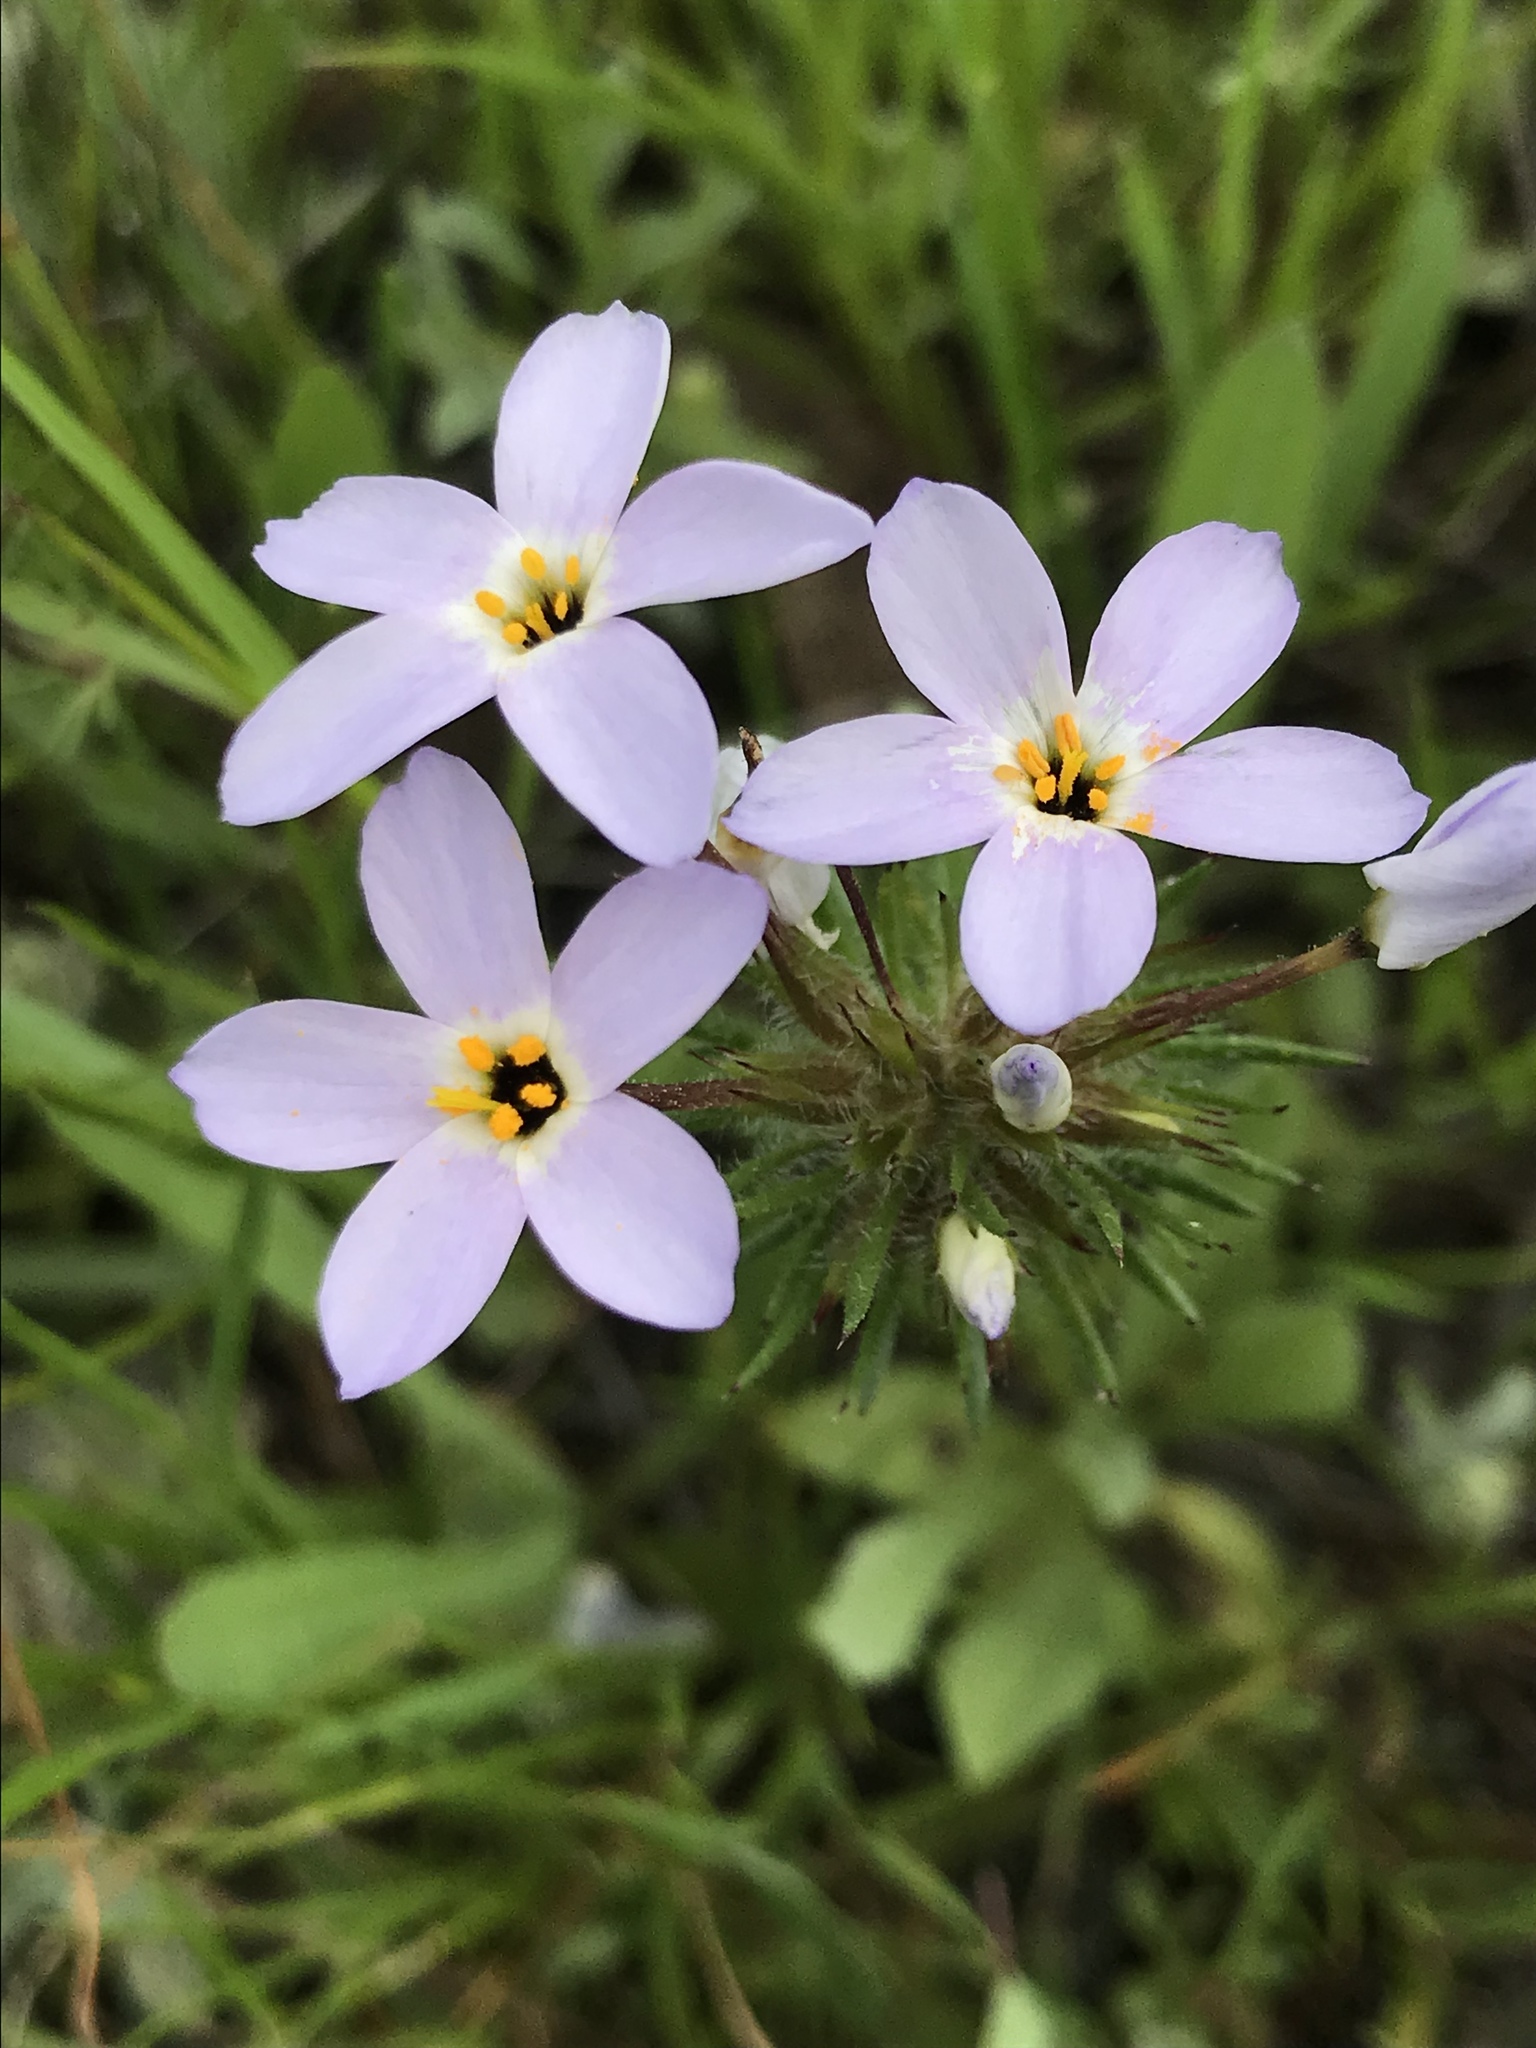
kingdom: Plantae
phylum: Tracheophyta
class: Magnoliopsida
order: Ericales
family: Polemoniaceae
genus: Leptosiphon
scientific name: Leptosiphon androsaceus
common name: False babystars
